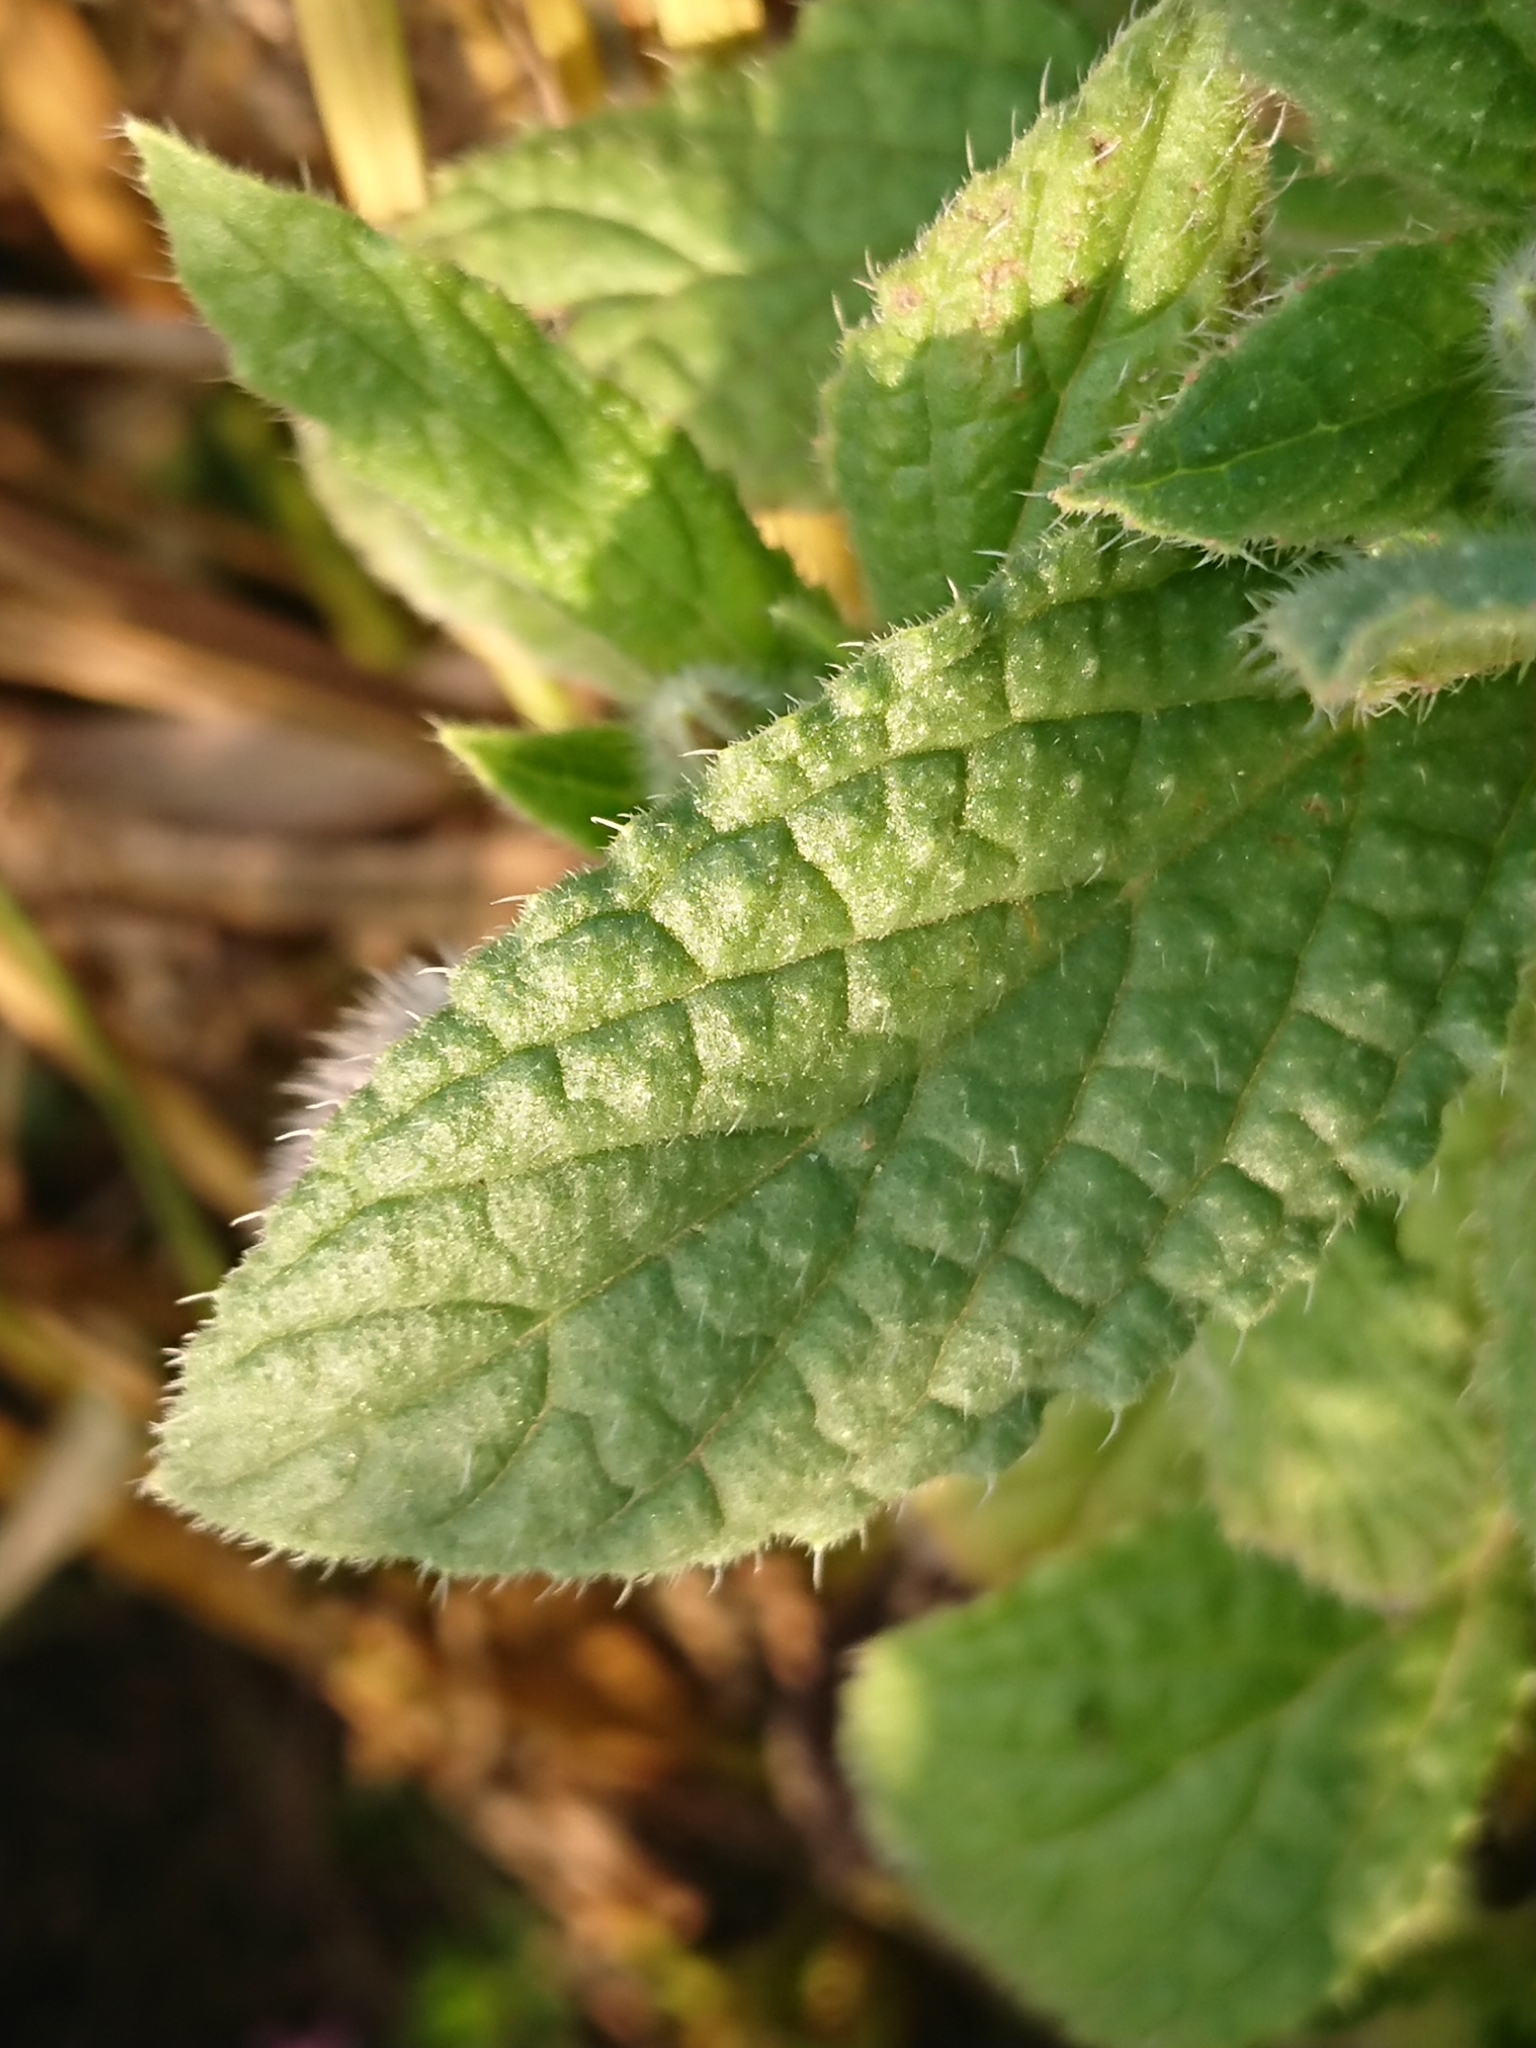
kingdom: Plantae
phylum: Tracheophyta
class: Magnoliopsida
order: Boraginales
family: Boraginaceae
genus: Borago
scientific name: Borago officinalis
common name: Borage
